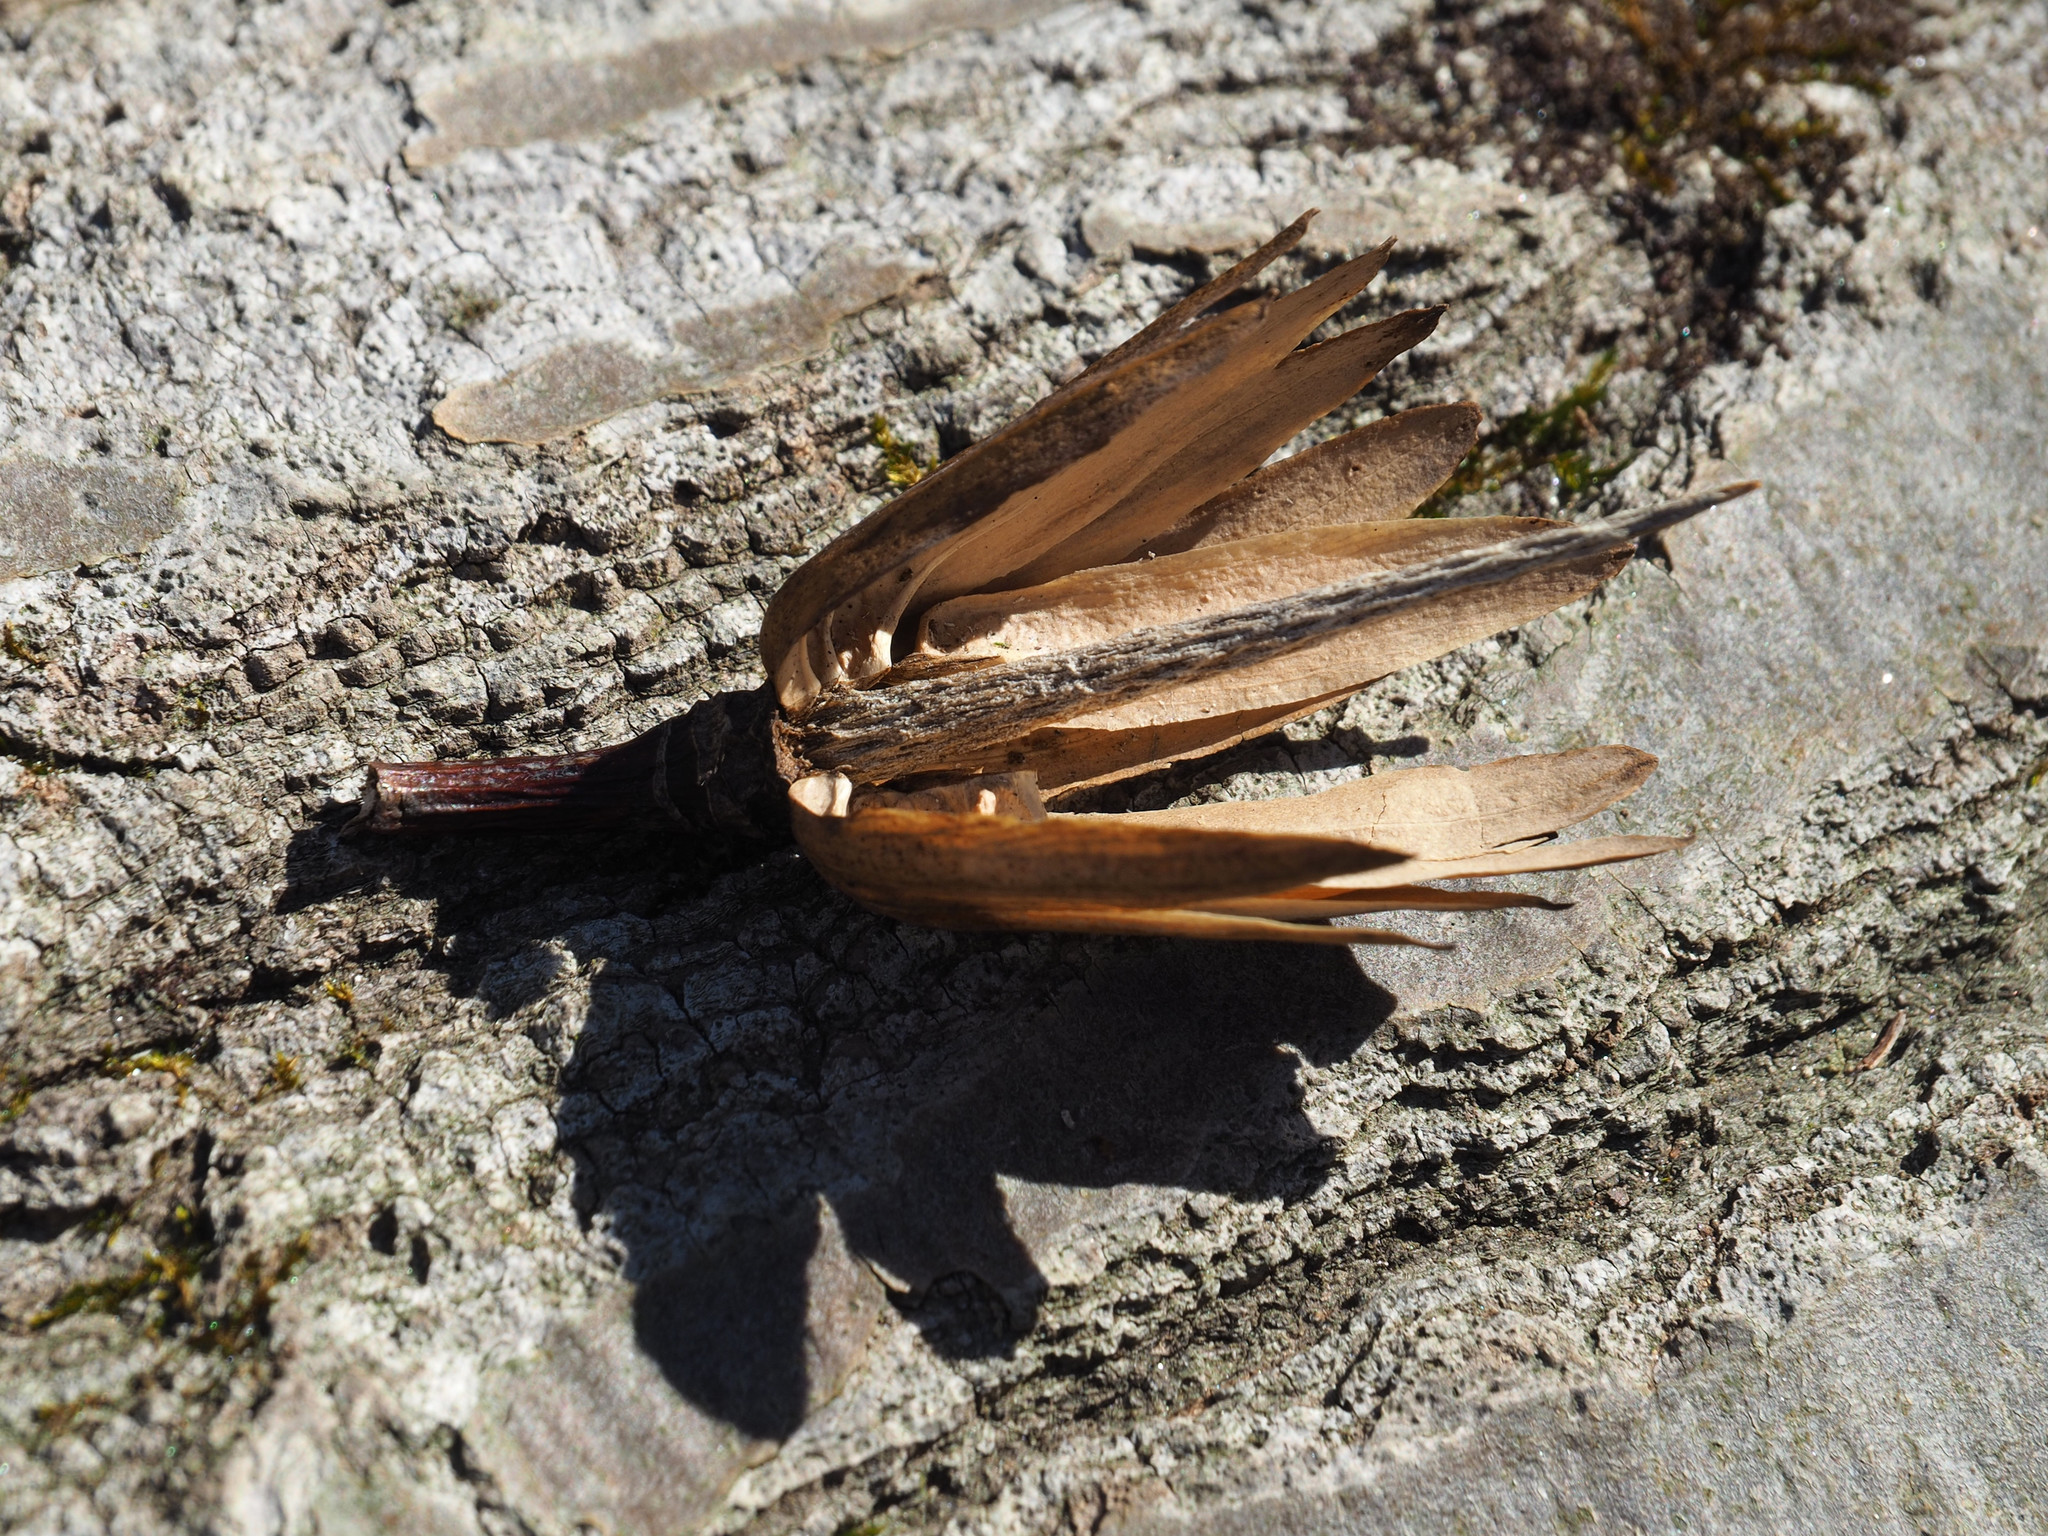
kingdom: Plantae
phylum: Tracheophyta
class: Magnoliopsida
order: Magnoliales
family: Magnoliaceae
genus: Liriodendron
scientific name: Liriodendron tulipifera
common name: Tulip tree
